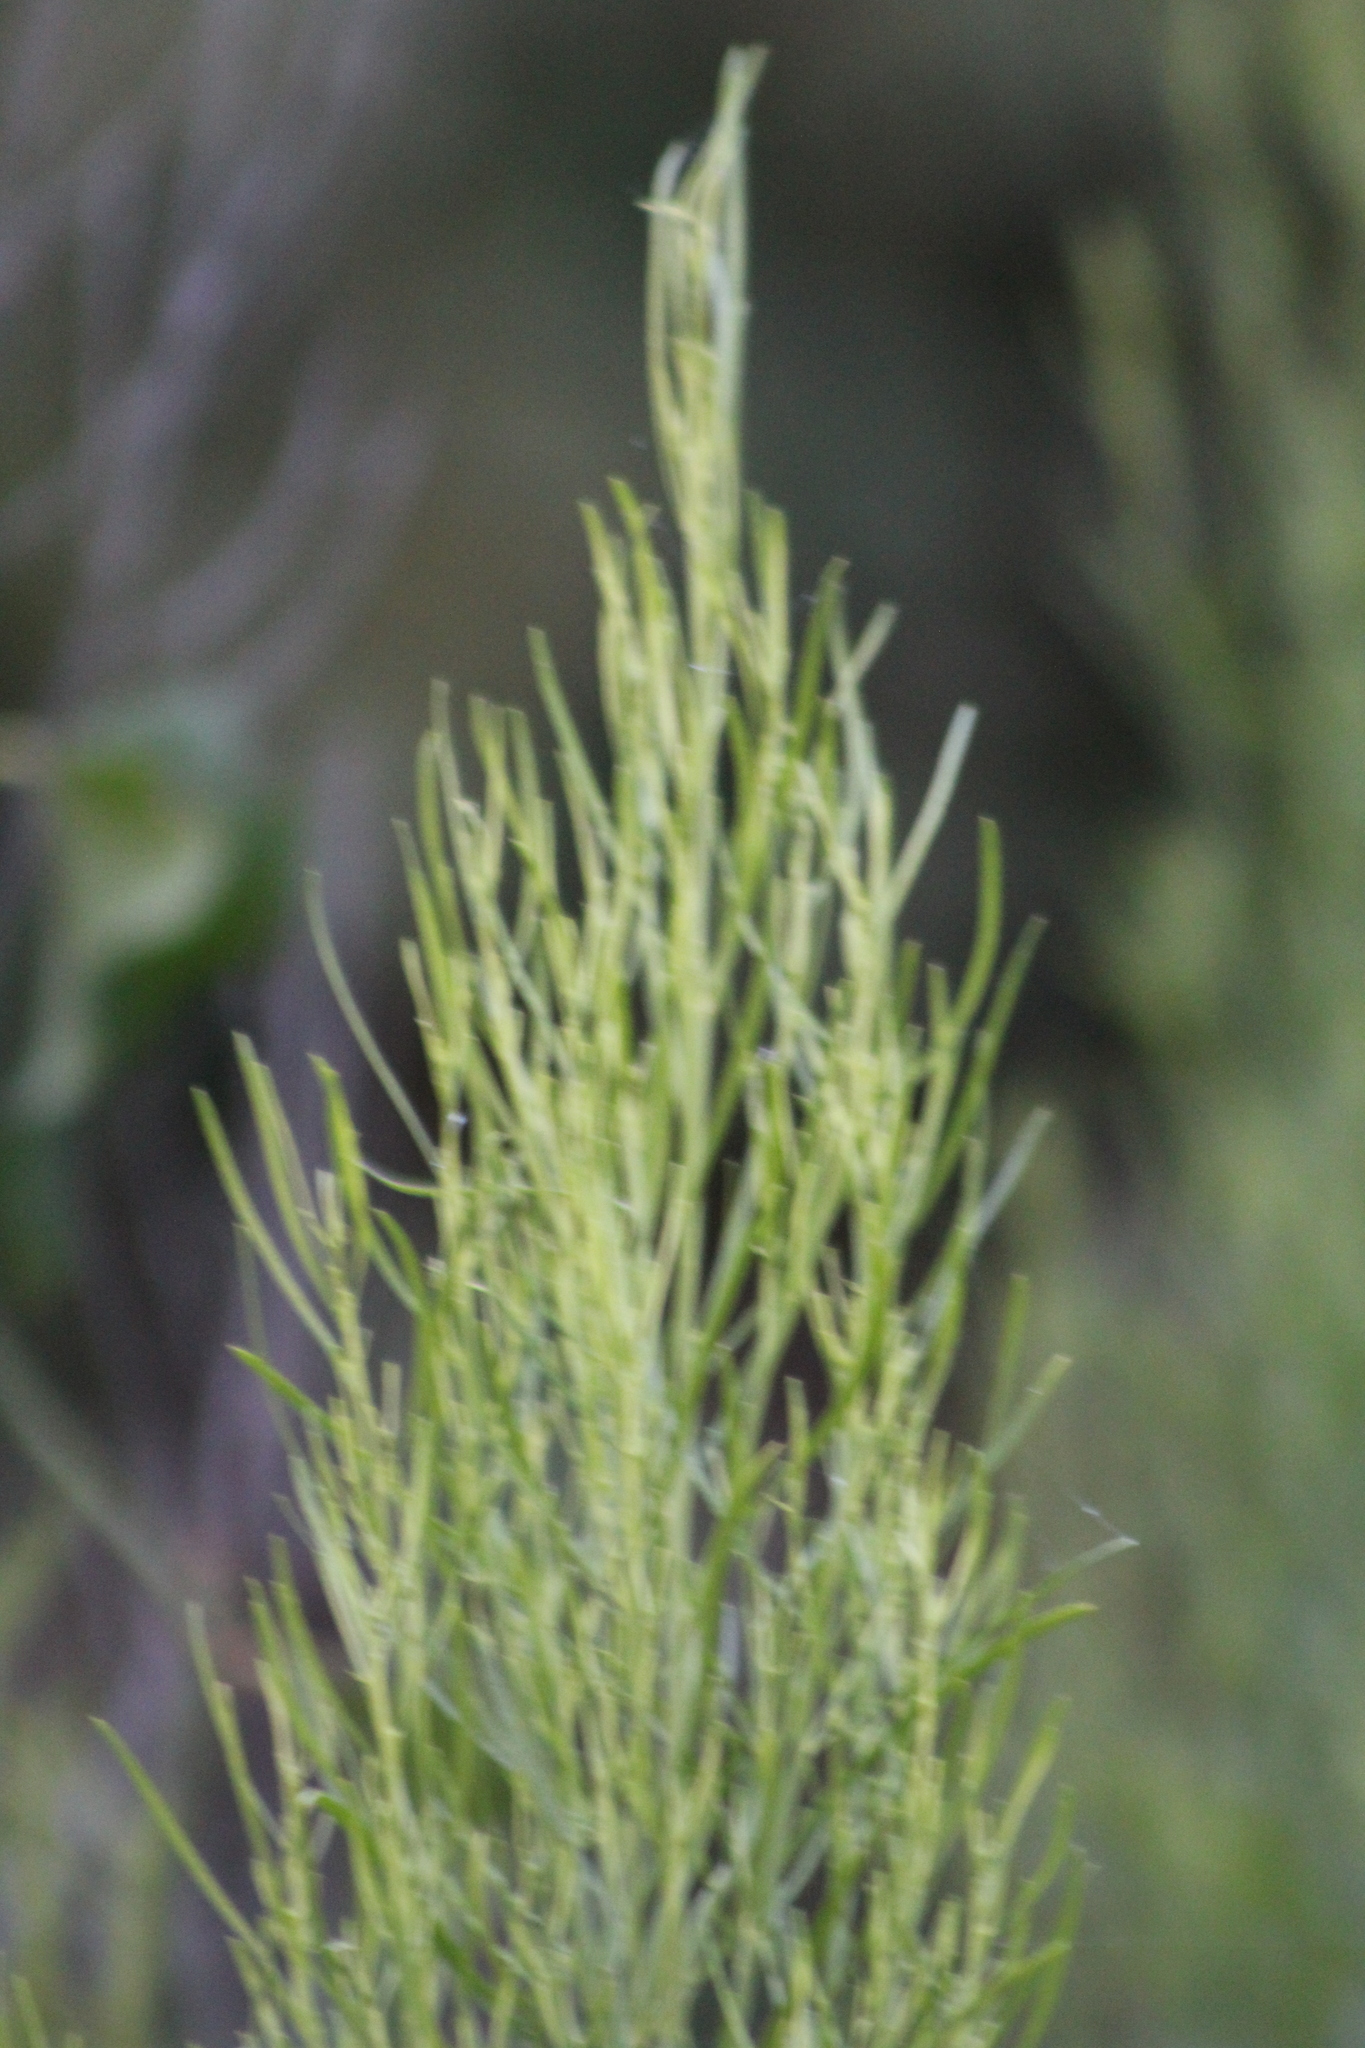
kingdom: Plantae
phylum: Tracheophyta
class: Magnoliopsida
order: Asterales
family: Asteraceae
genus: Baccharis
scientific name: Baccharis neglecta
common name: Roosevelt-weed
